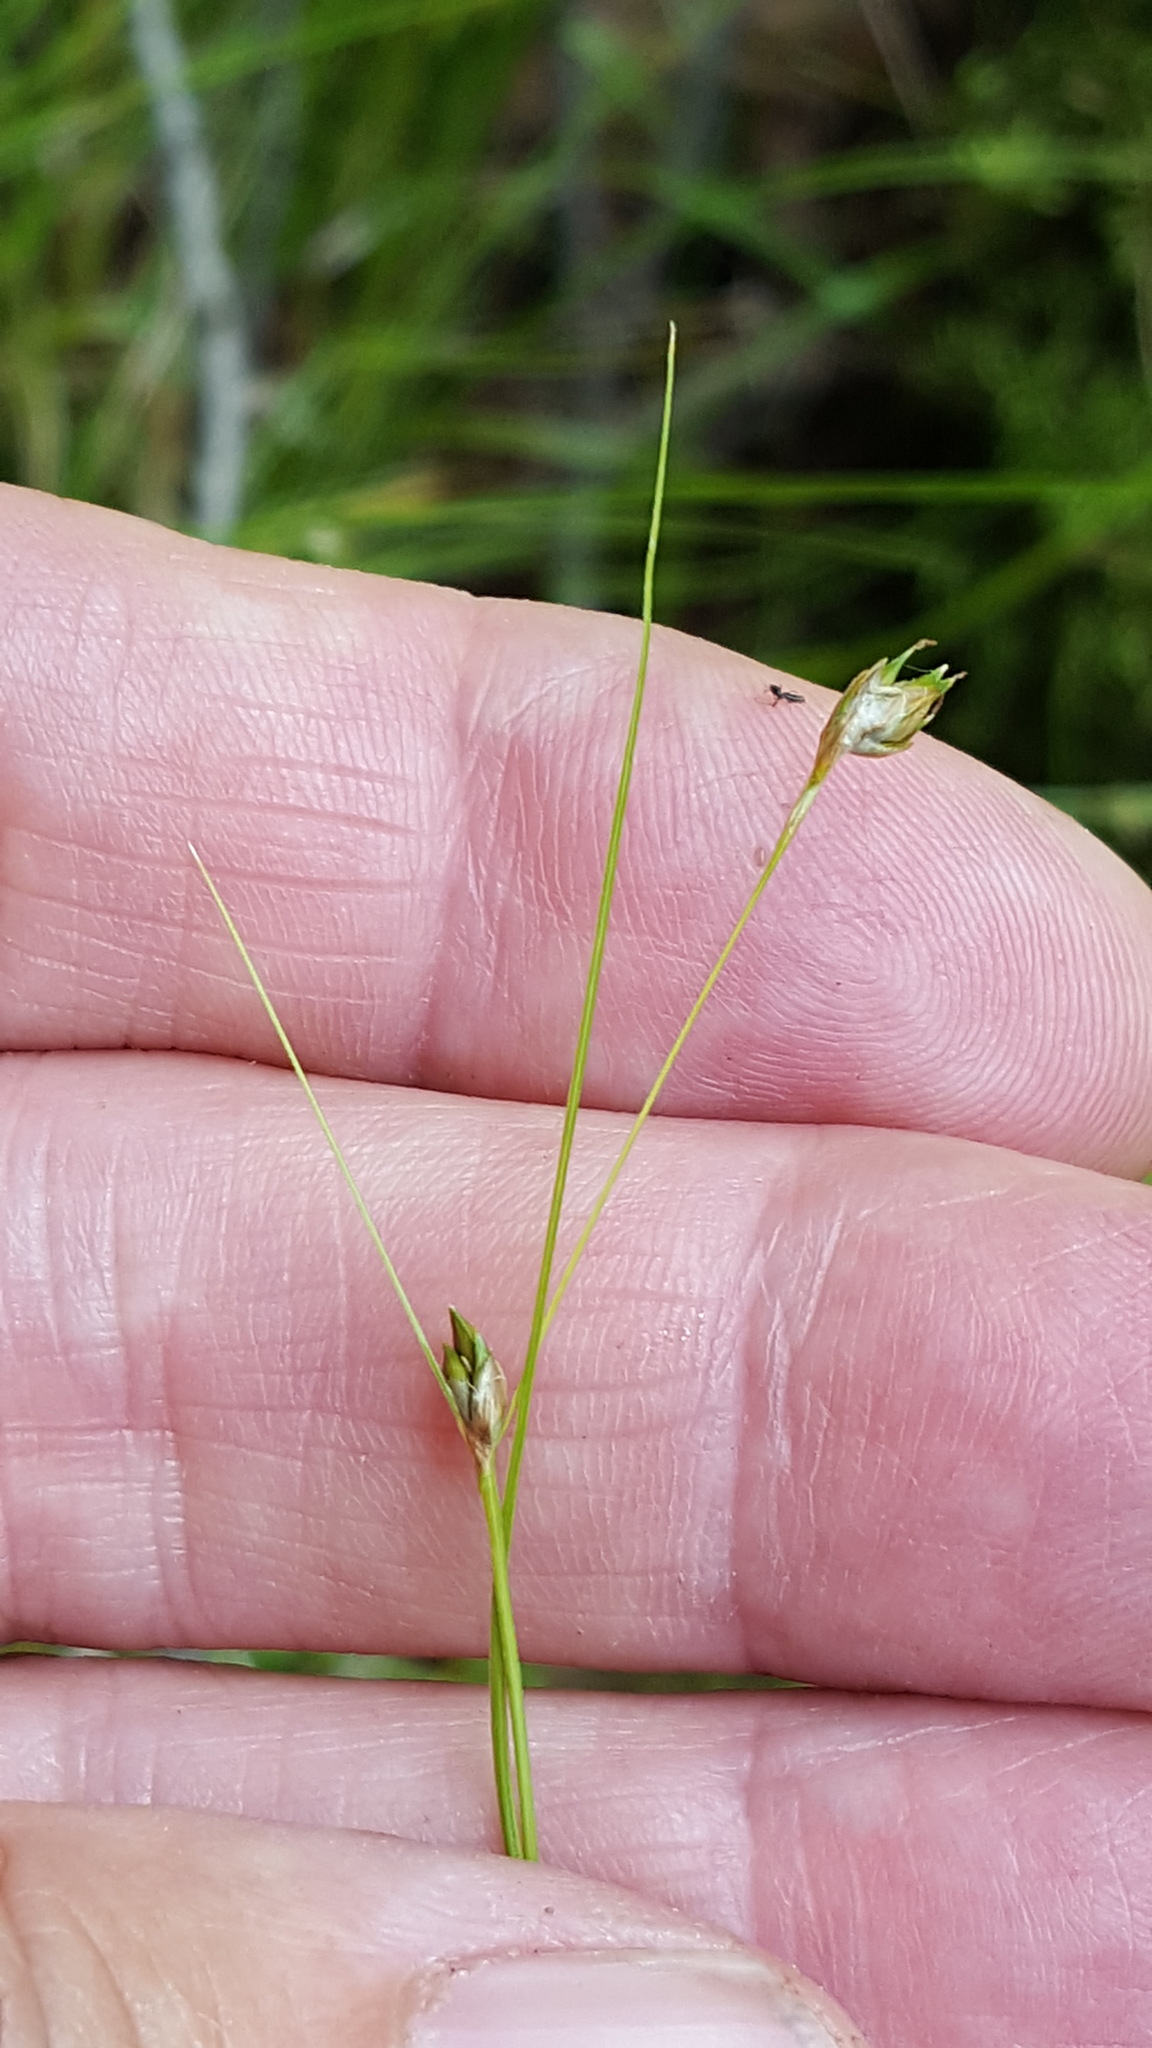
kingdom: Plantae
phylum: Tracheophyta
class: Liliopsida
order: Poales
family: Cyperaceae
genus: Carex
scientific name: Carex trisperma
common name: Three-seeded sedge
